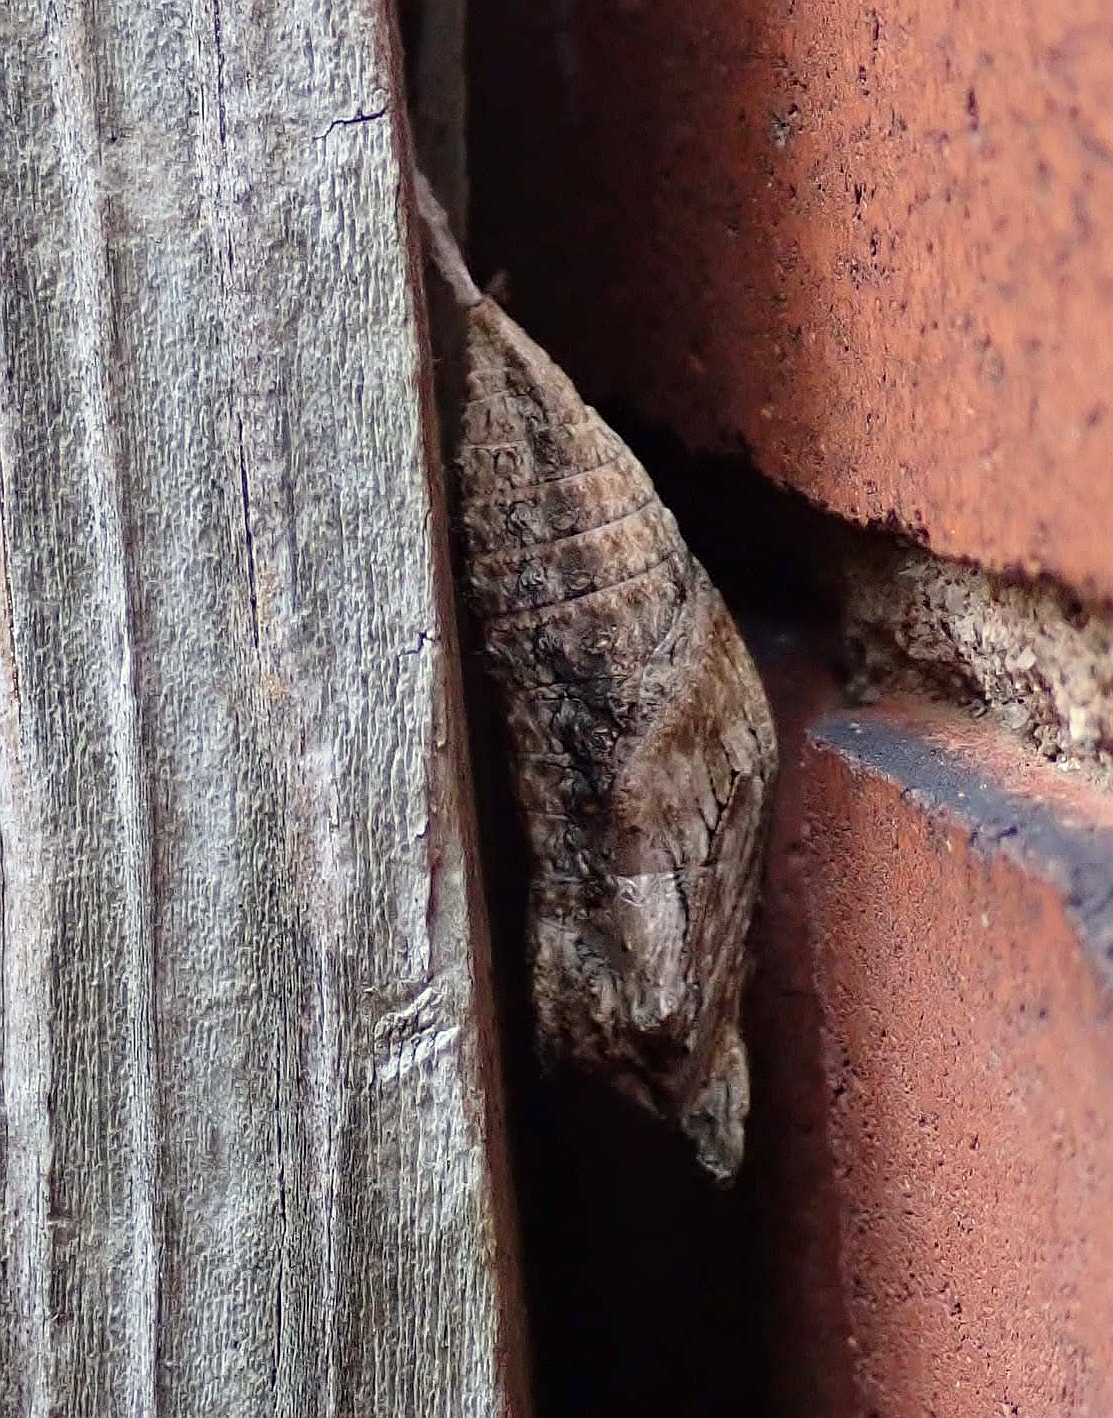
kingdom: Animalia
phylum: Arthropoda
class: Insecta
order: Lepidoptera
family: Papilionidae
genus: Papilio
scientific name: Papilio polyxenes
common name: Black swallowtail
